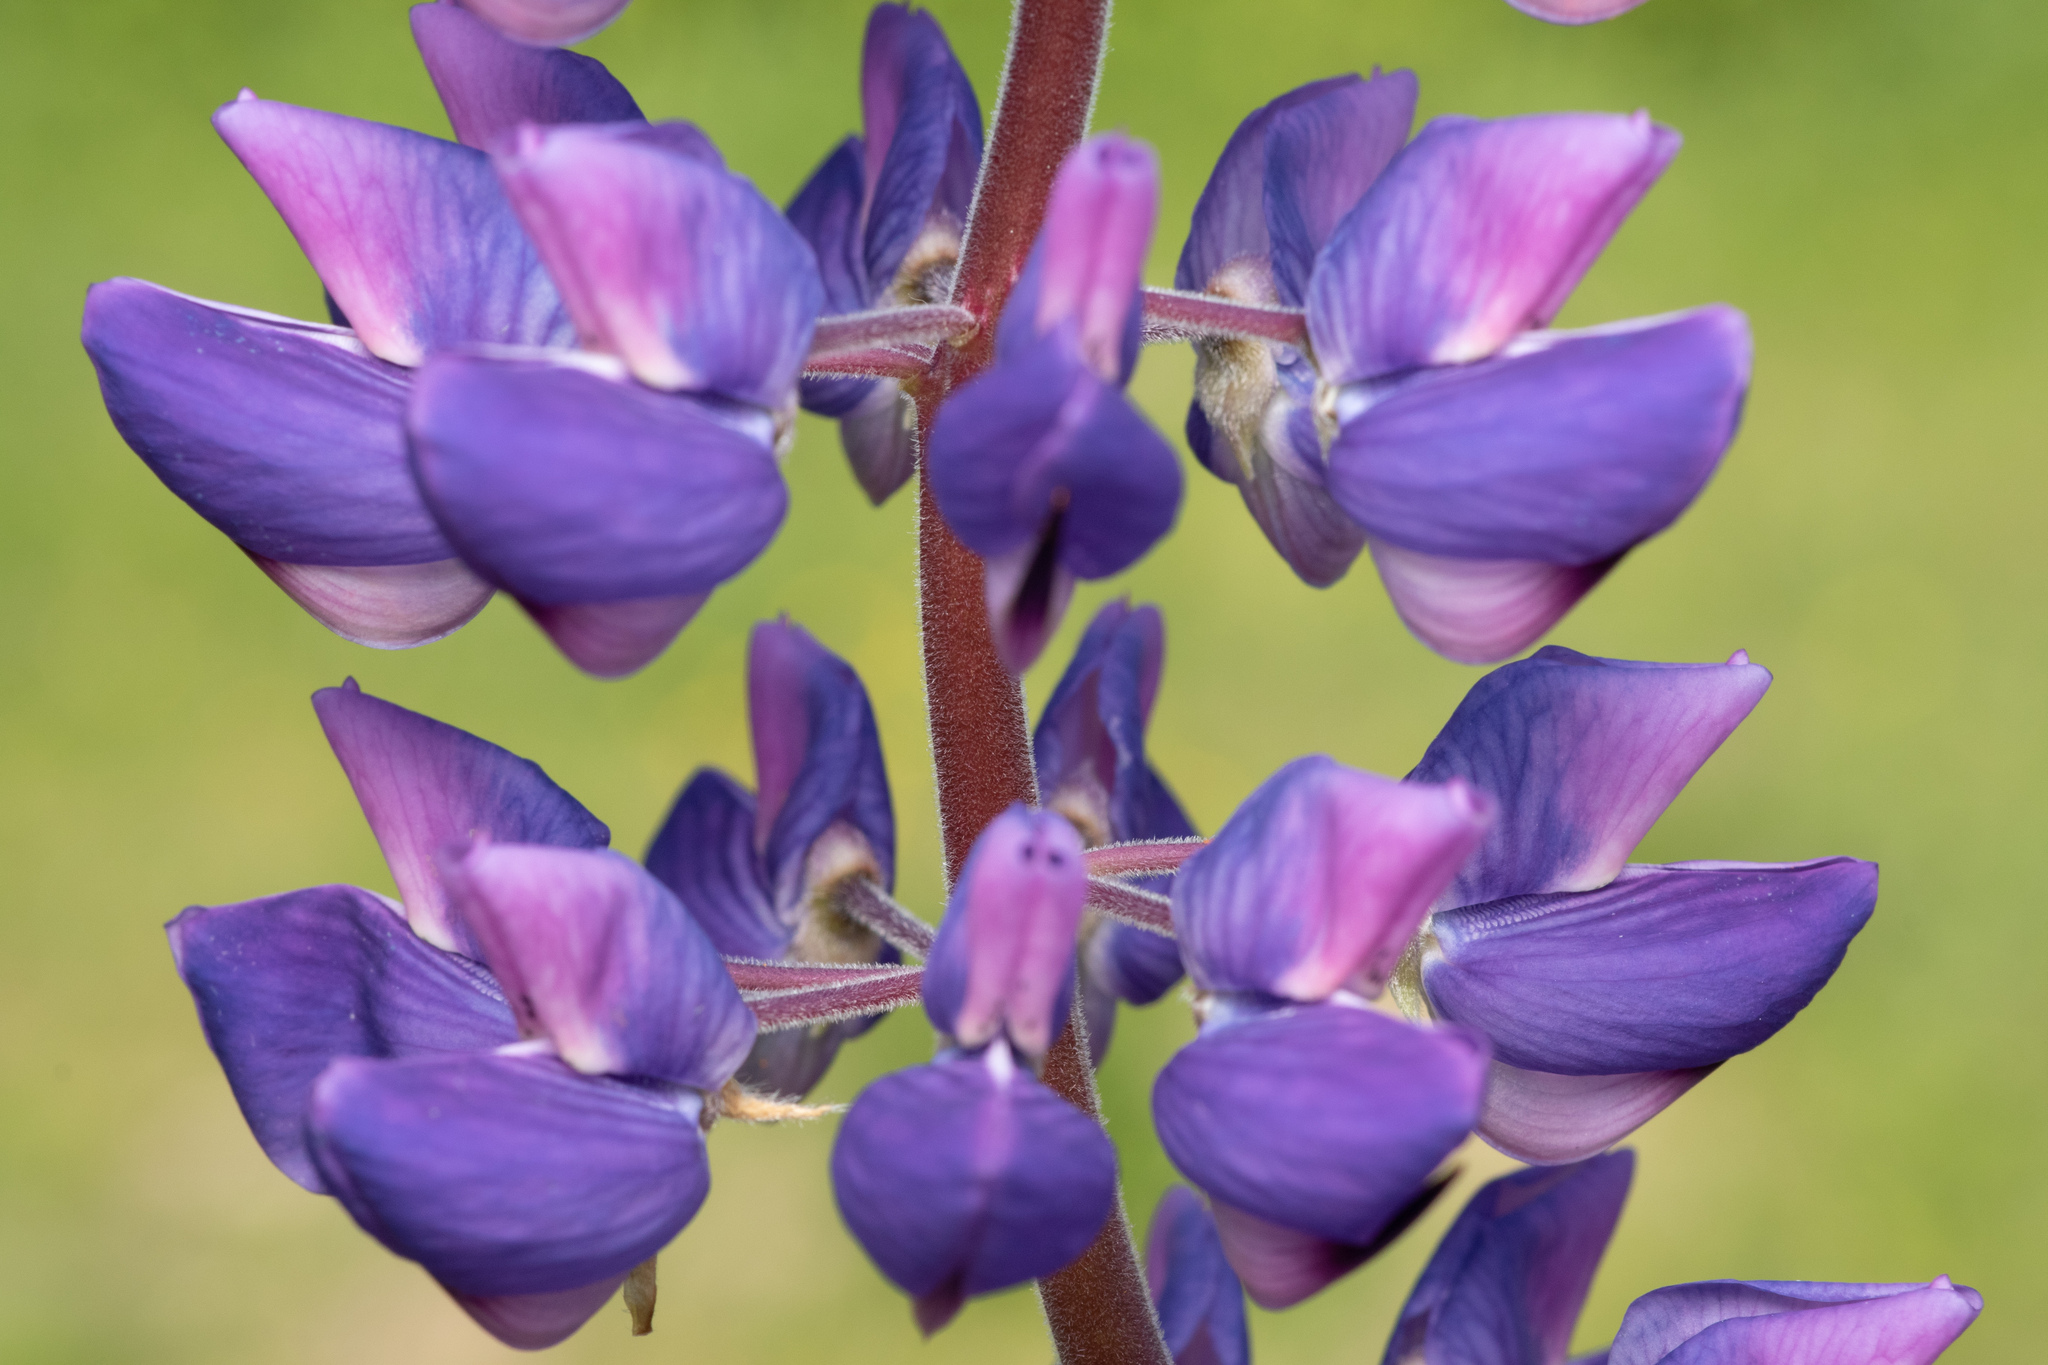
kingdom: Plantae
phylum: Tracheophyta
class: Magnoliopsida
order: Fabales
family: Fabaceae
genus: Lupinus
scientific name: Lupinus polyphyllus
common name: Garden lupin
